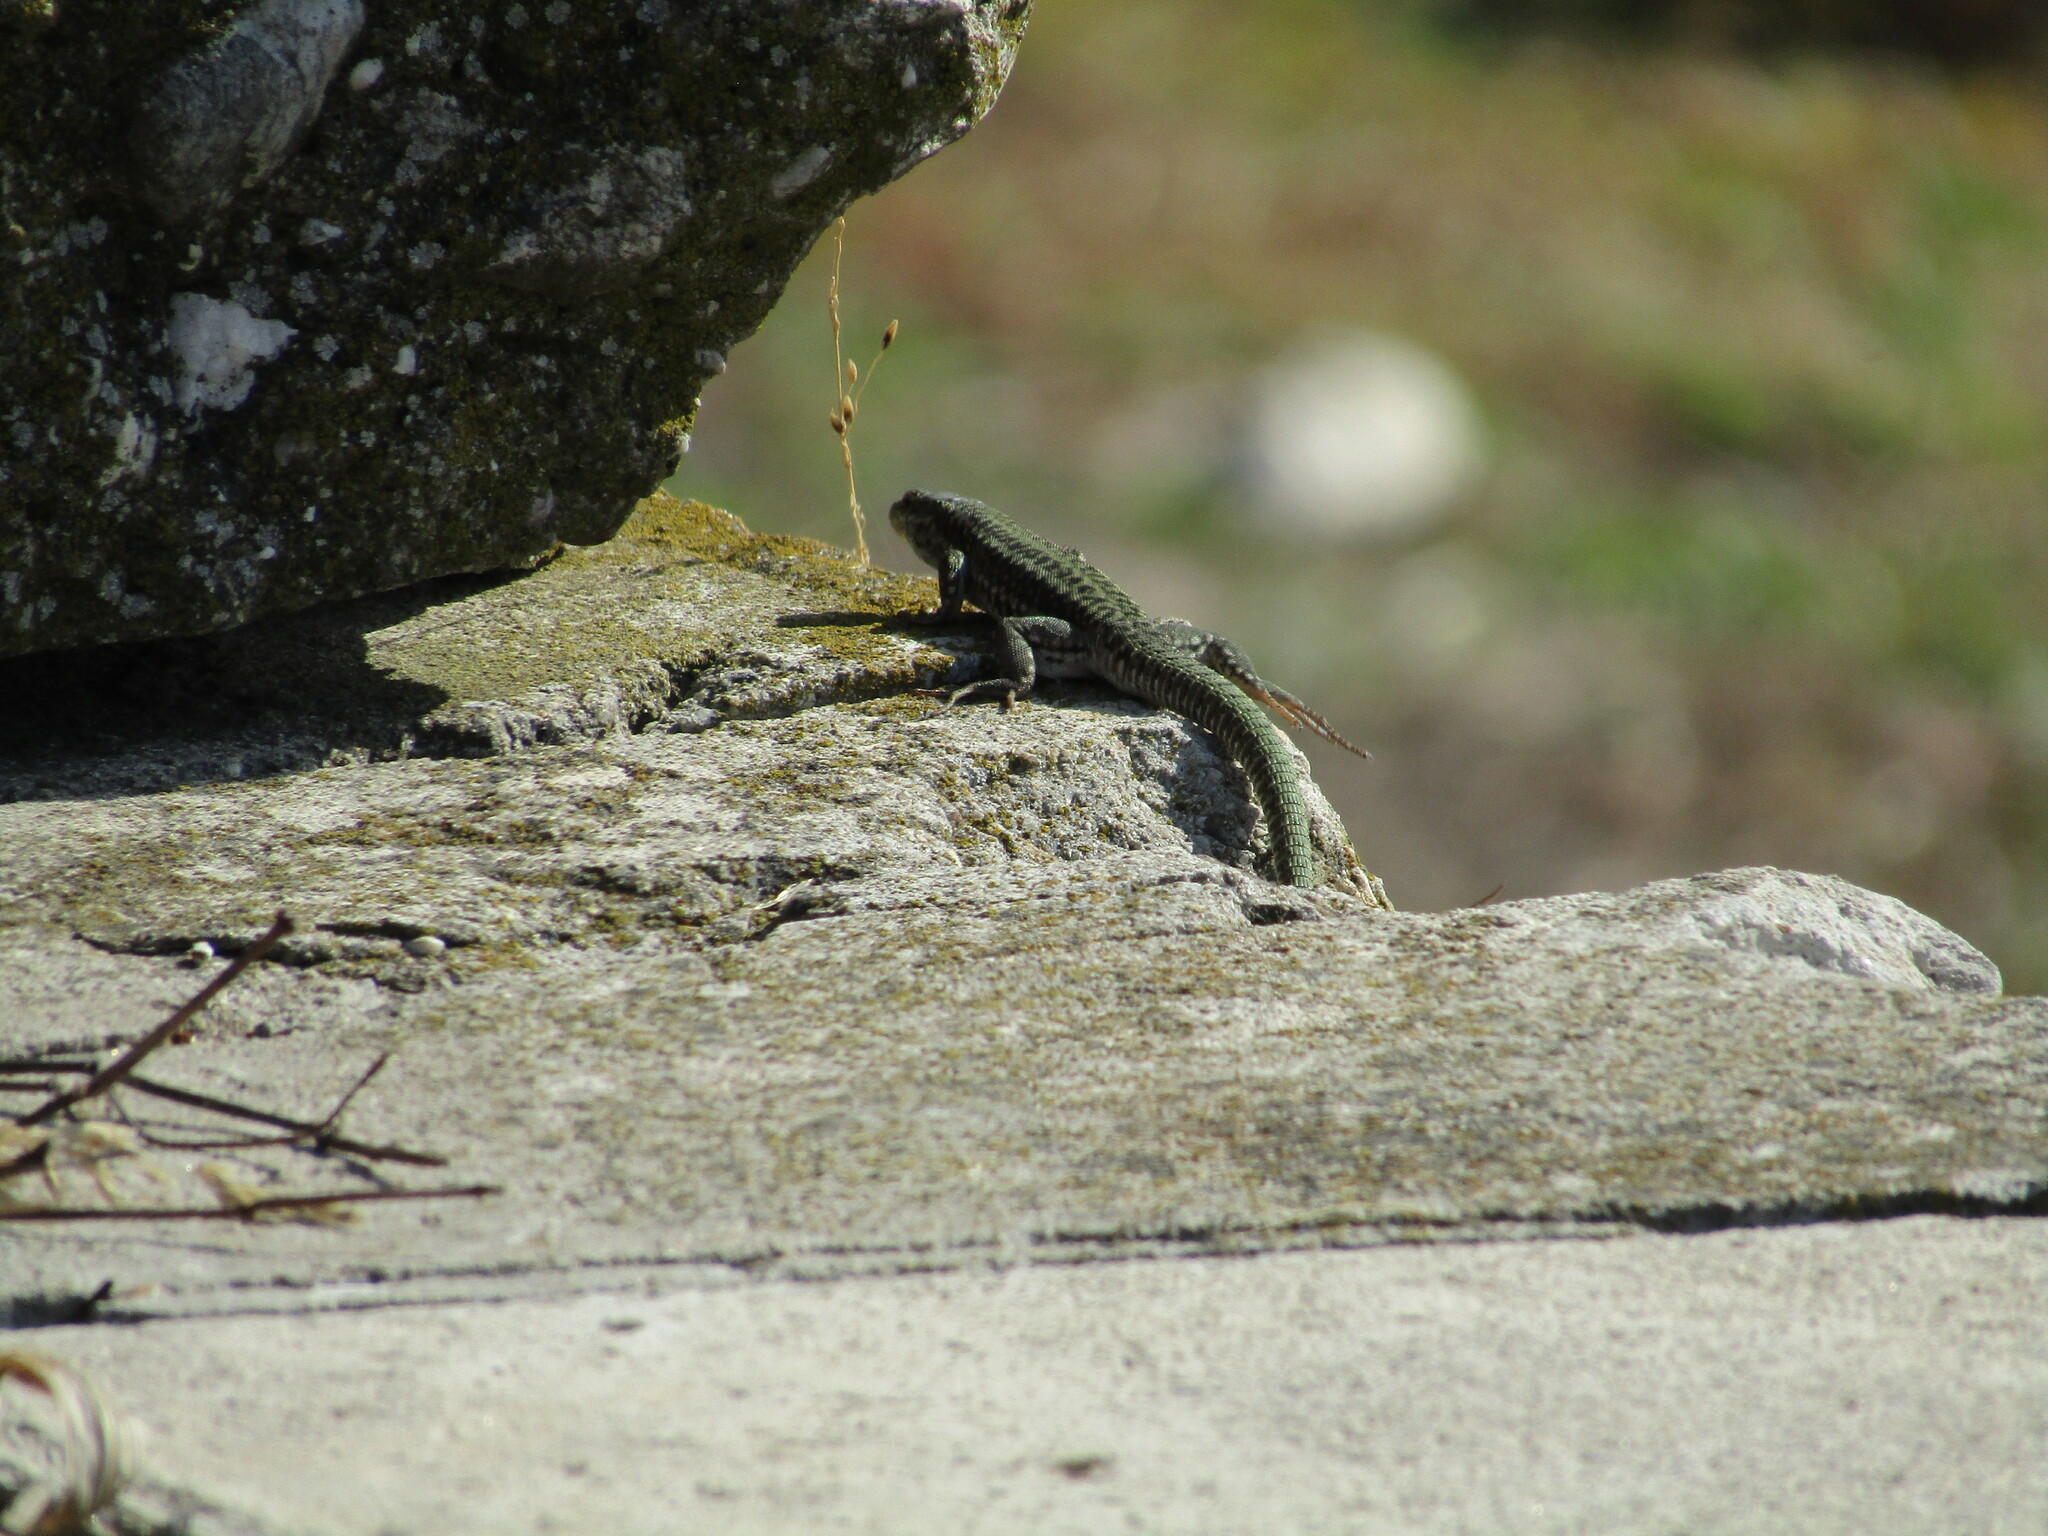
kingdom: Animalia
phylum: Chordata
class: Squamata
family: Lacertidae
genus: Podarcis
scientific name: Podarcis erhardii
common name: Erhard's wall lizard
